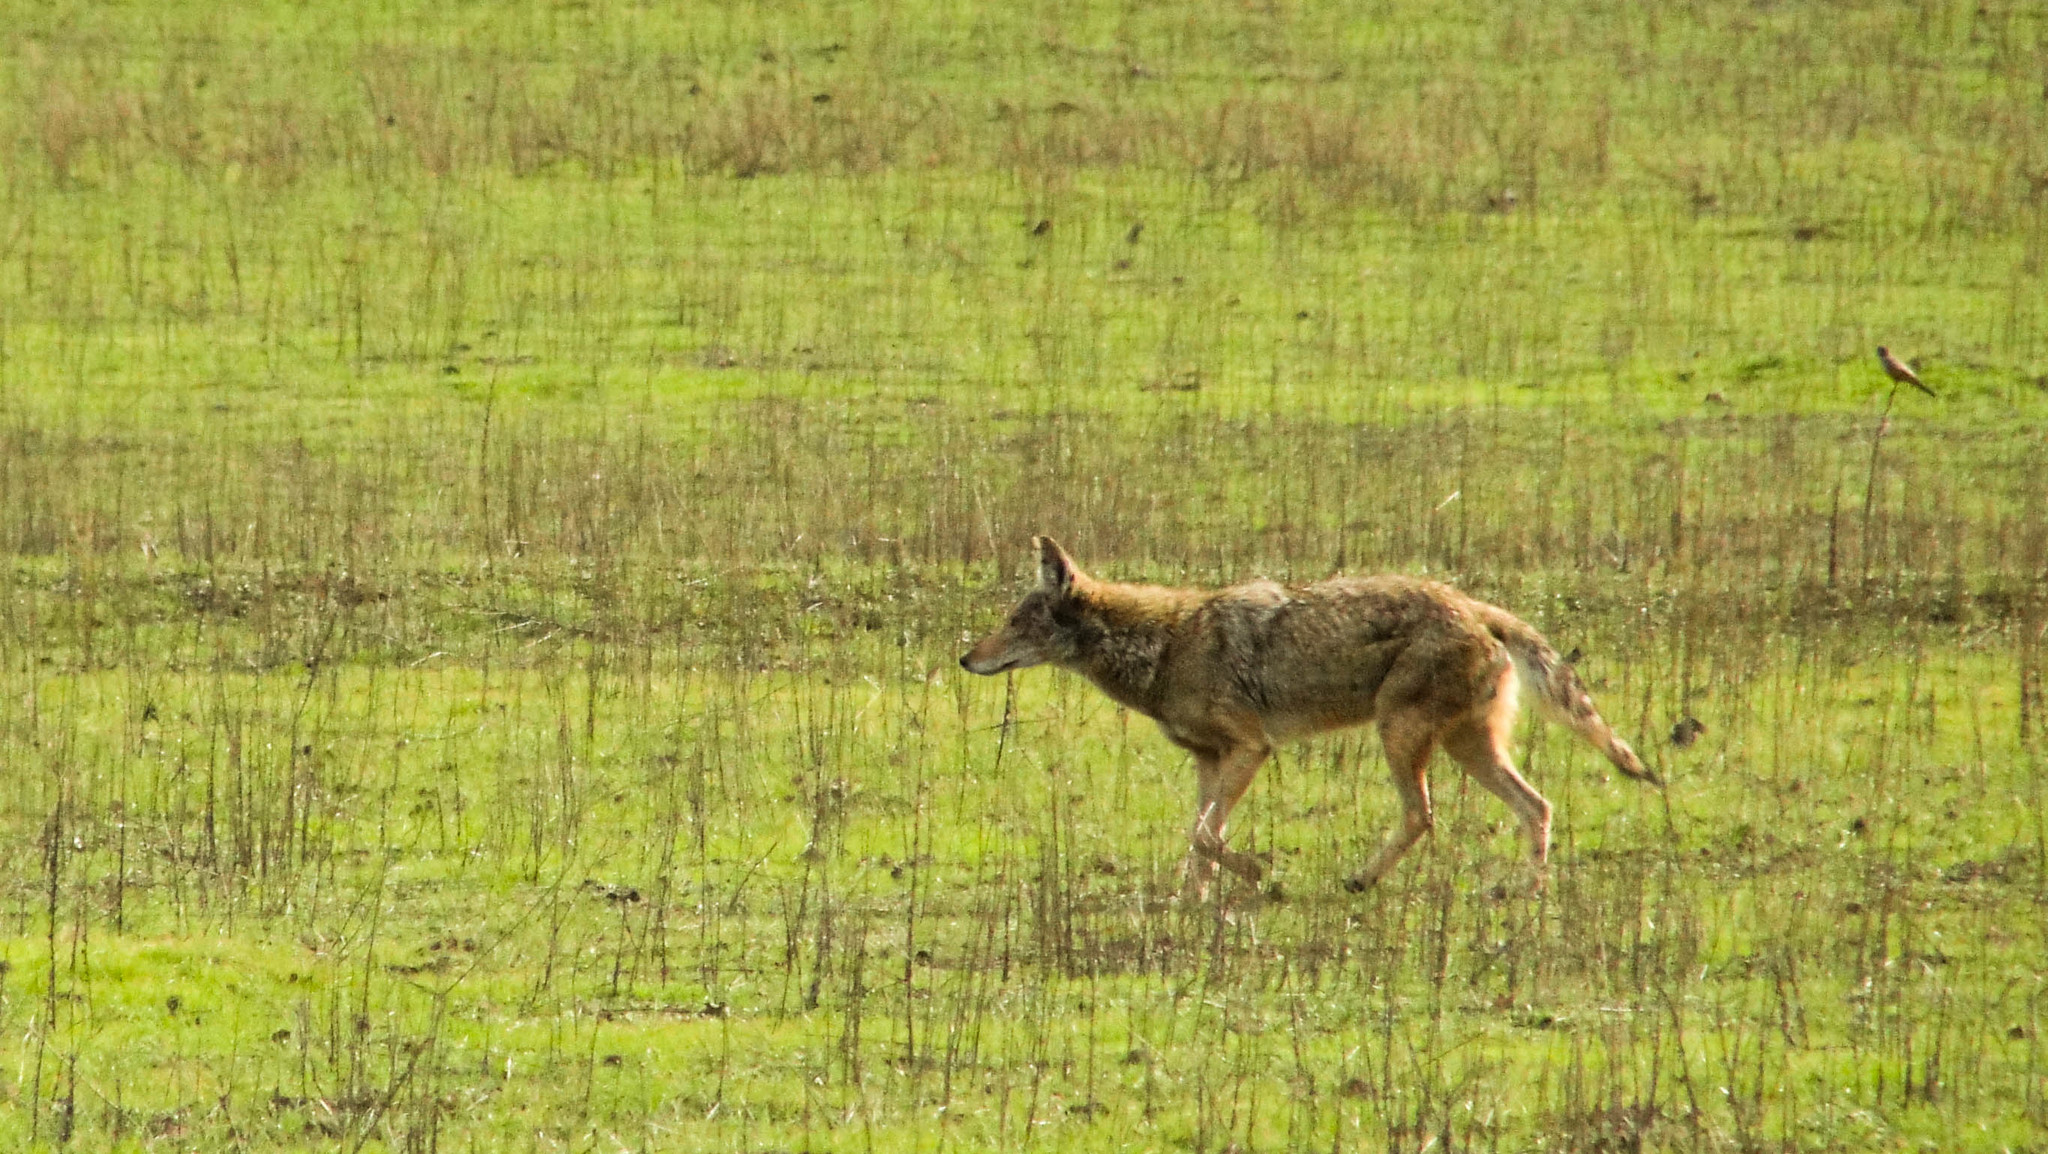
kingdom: Animalia
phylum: Chordata
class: Mammalia
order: Carnivora
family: Canidae
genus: Canis
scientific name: Canis latrans
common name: Coyote
